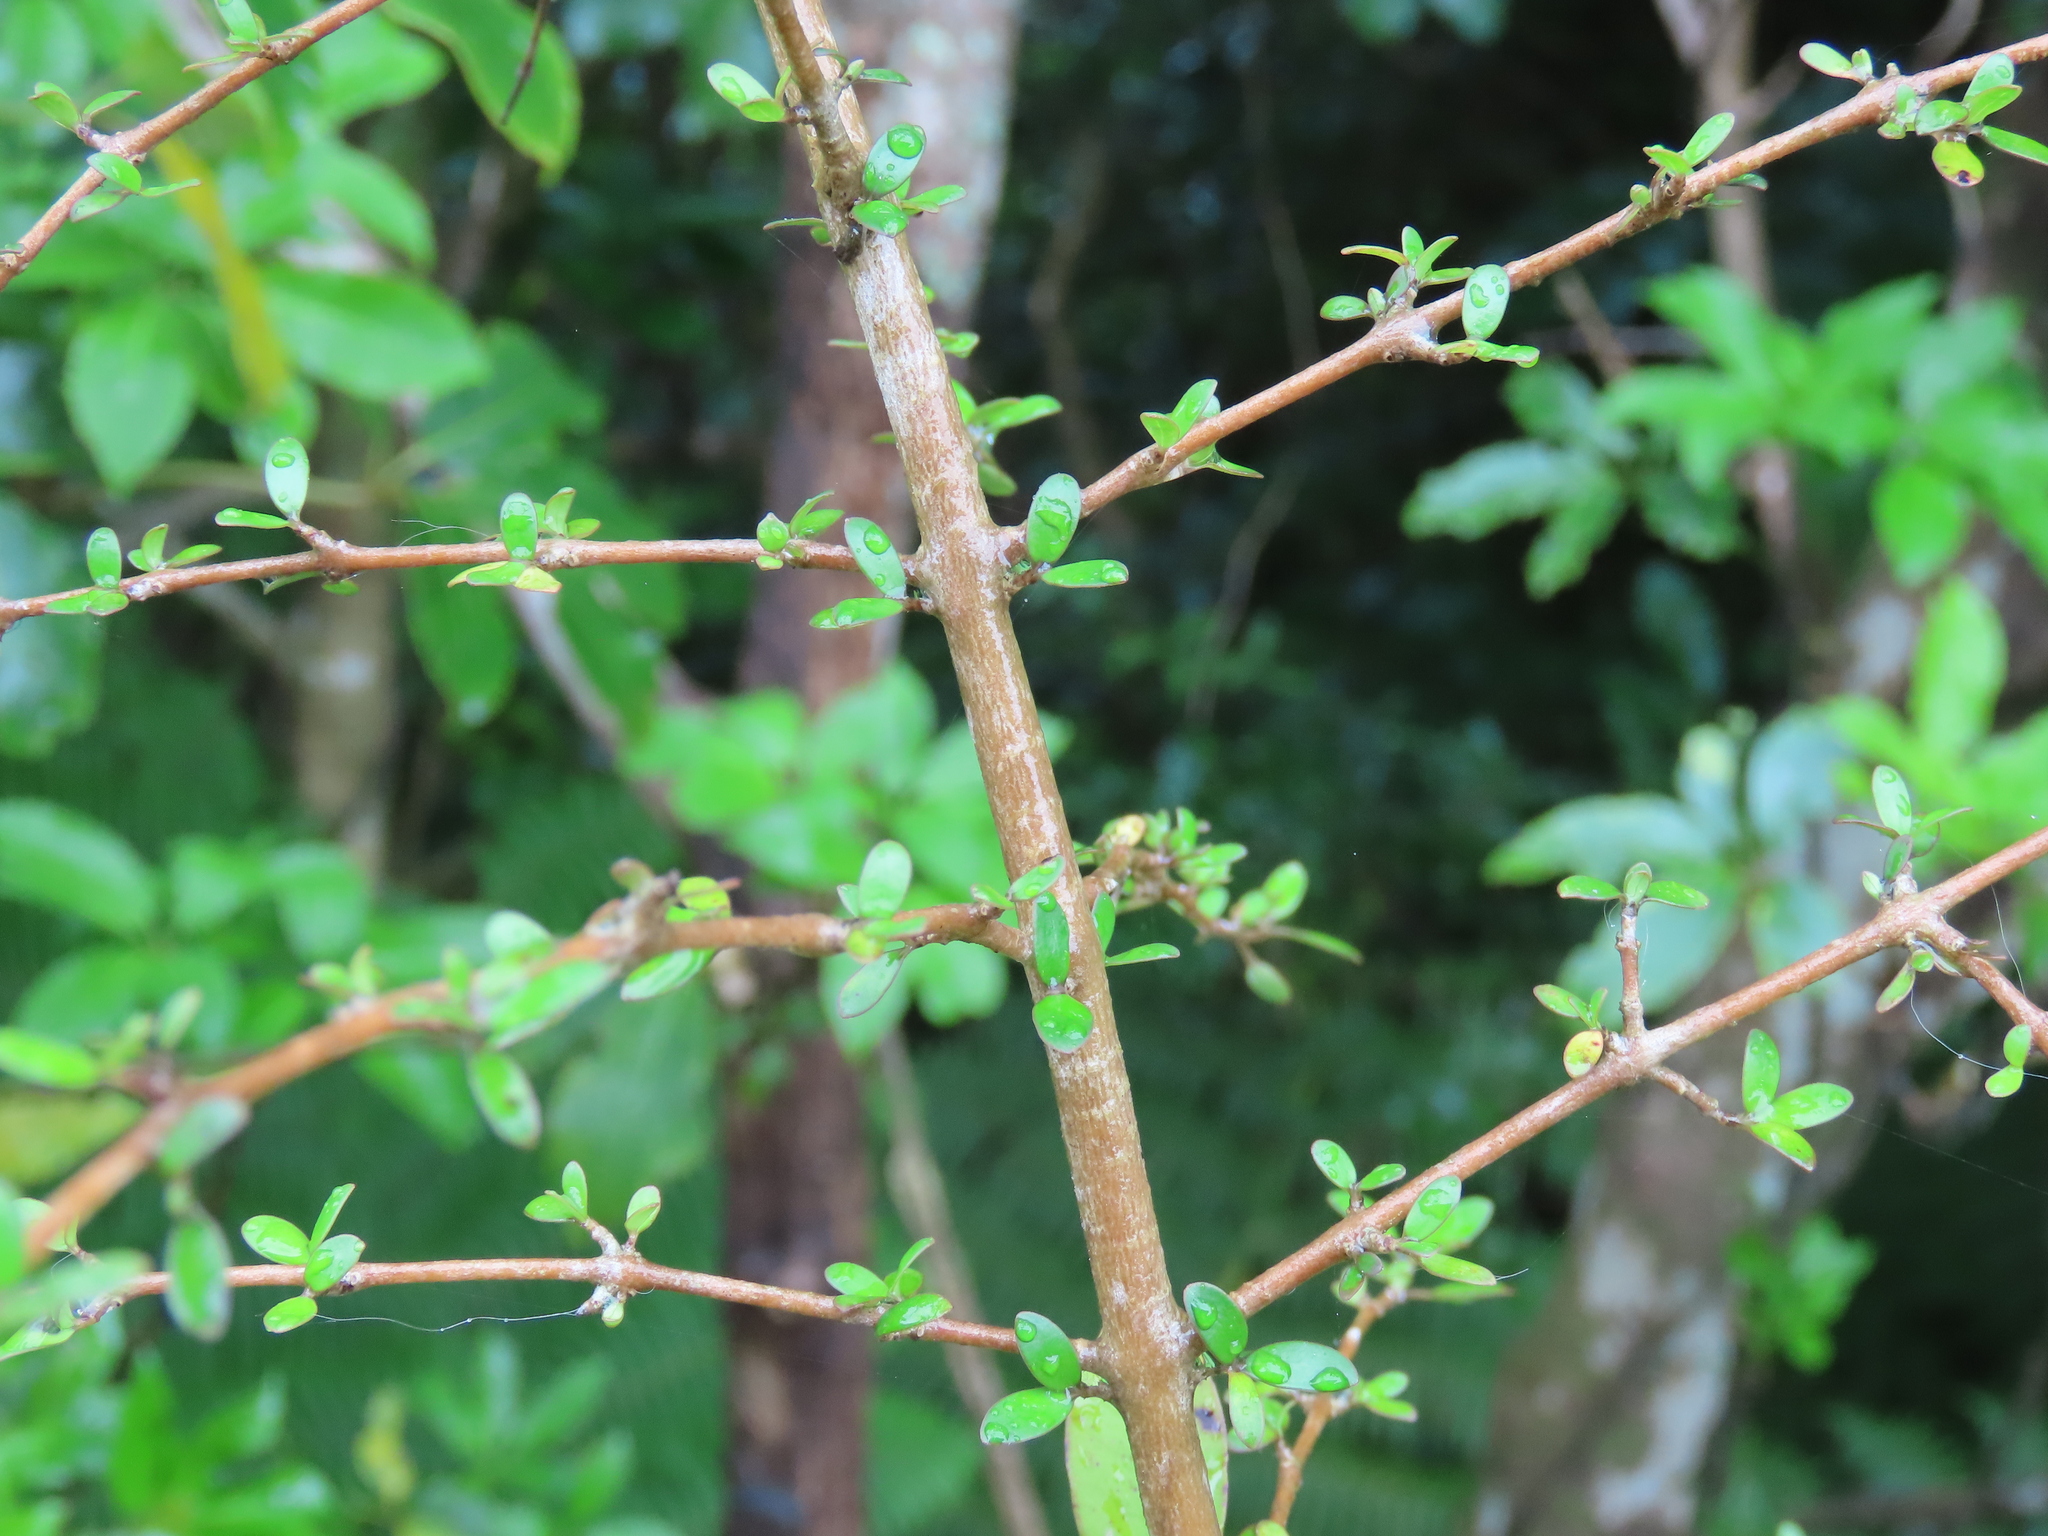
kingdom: Plantae
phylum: Tracheophyta
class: Magnoliopsida
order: Gentianales
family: Rubiaceae
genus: Coprosma
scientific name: Coprosma propinqua
